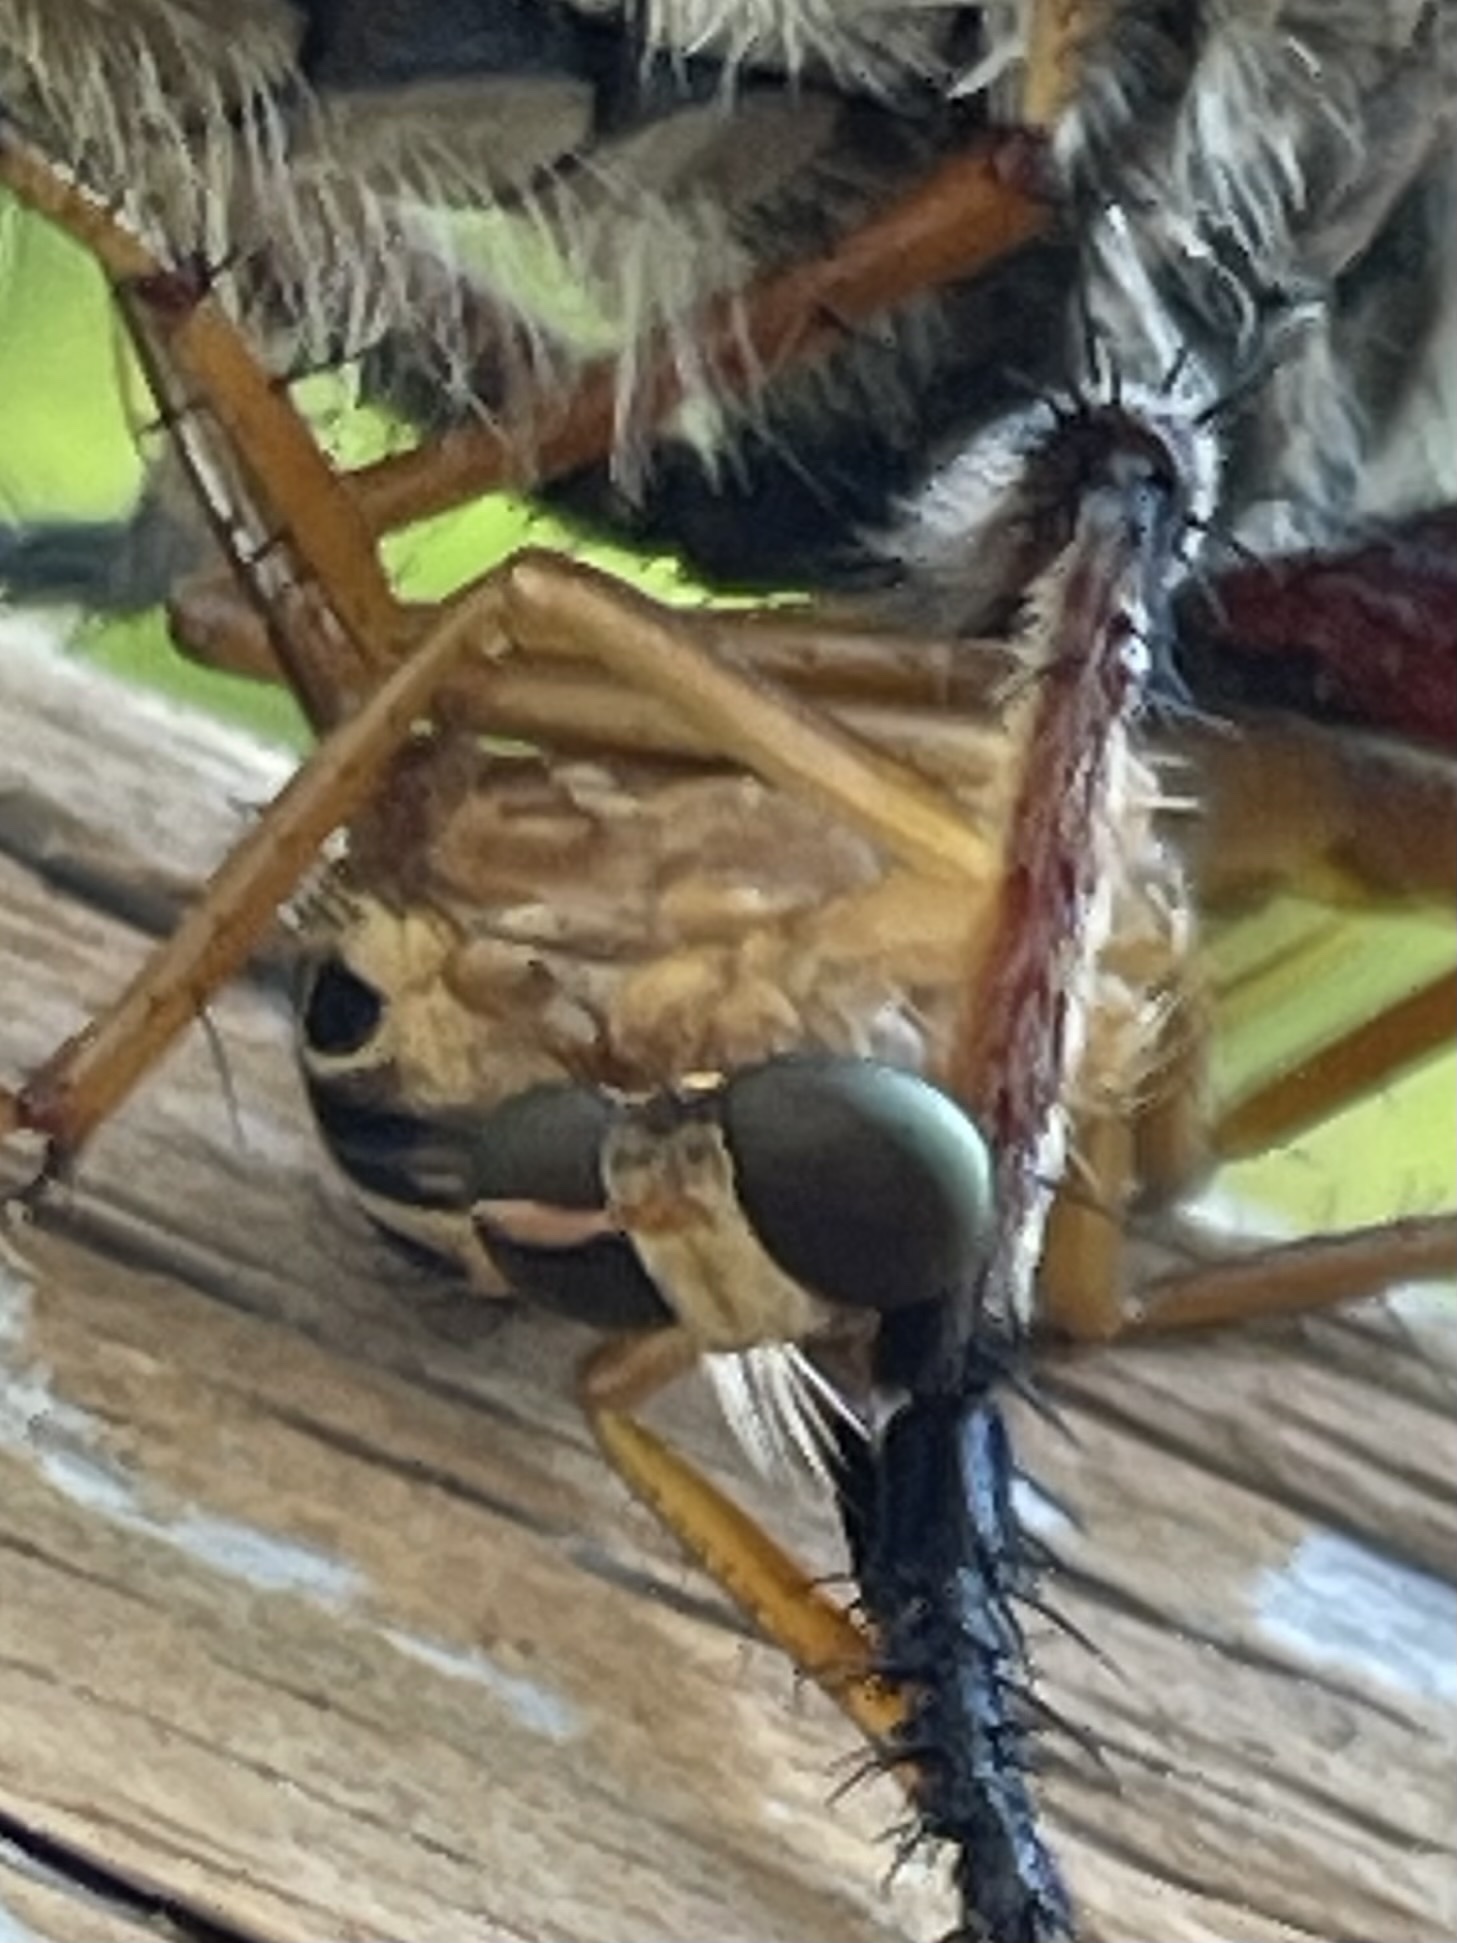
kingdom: Animalia
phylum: Arthropoda
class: Insecta
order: Diptera
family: Asilidae
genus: Diogmites
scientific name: Diogmites neoternatus
